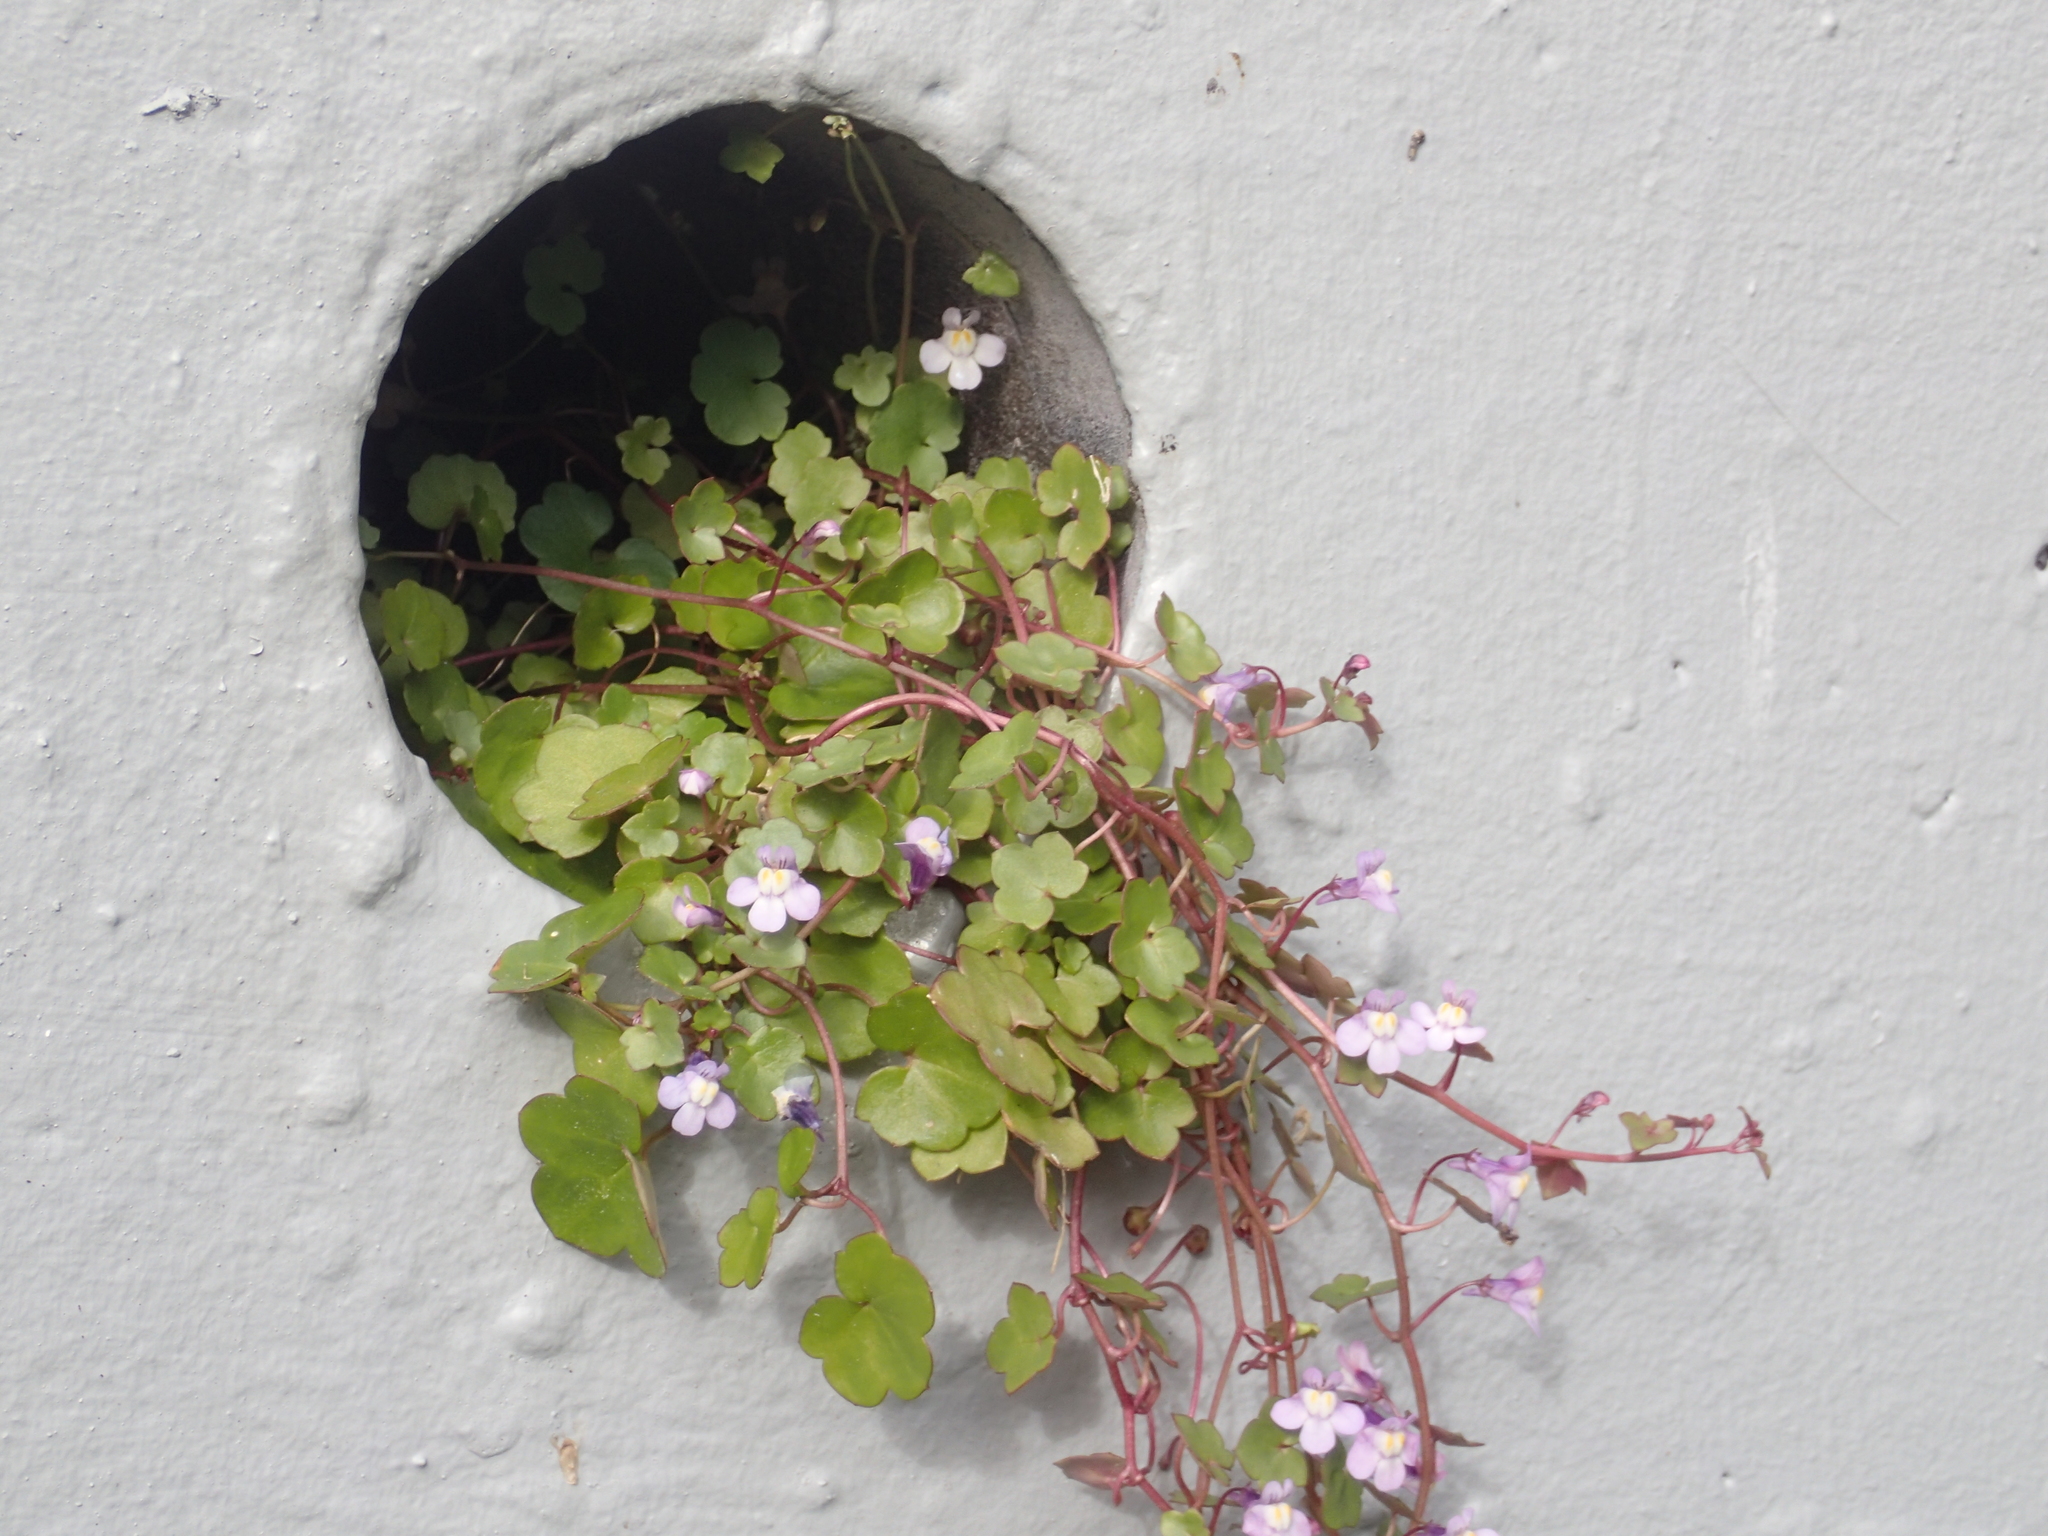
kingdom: Plantae
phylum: Tracheophyta
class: Magnoliopsida
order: Lamiales
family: Plantaginaceae
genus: Cymbalaria
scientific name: Cymbalaria muralis
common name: Ivy-leaved toadflax
